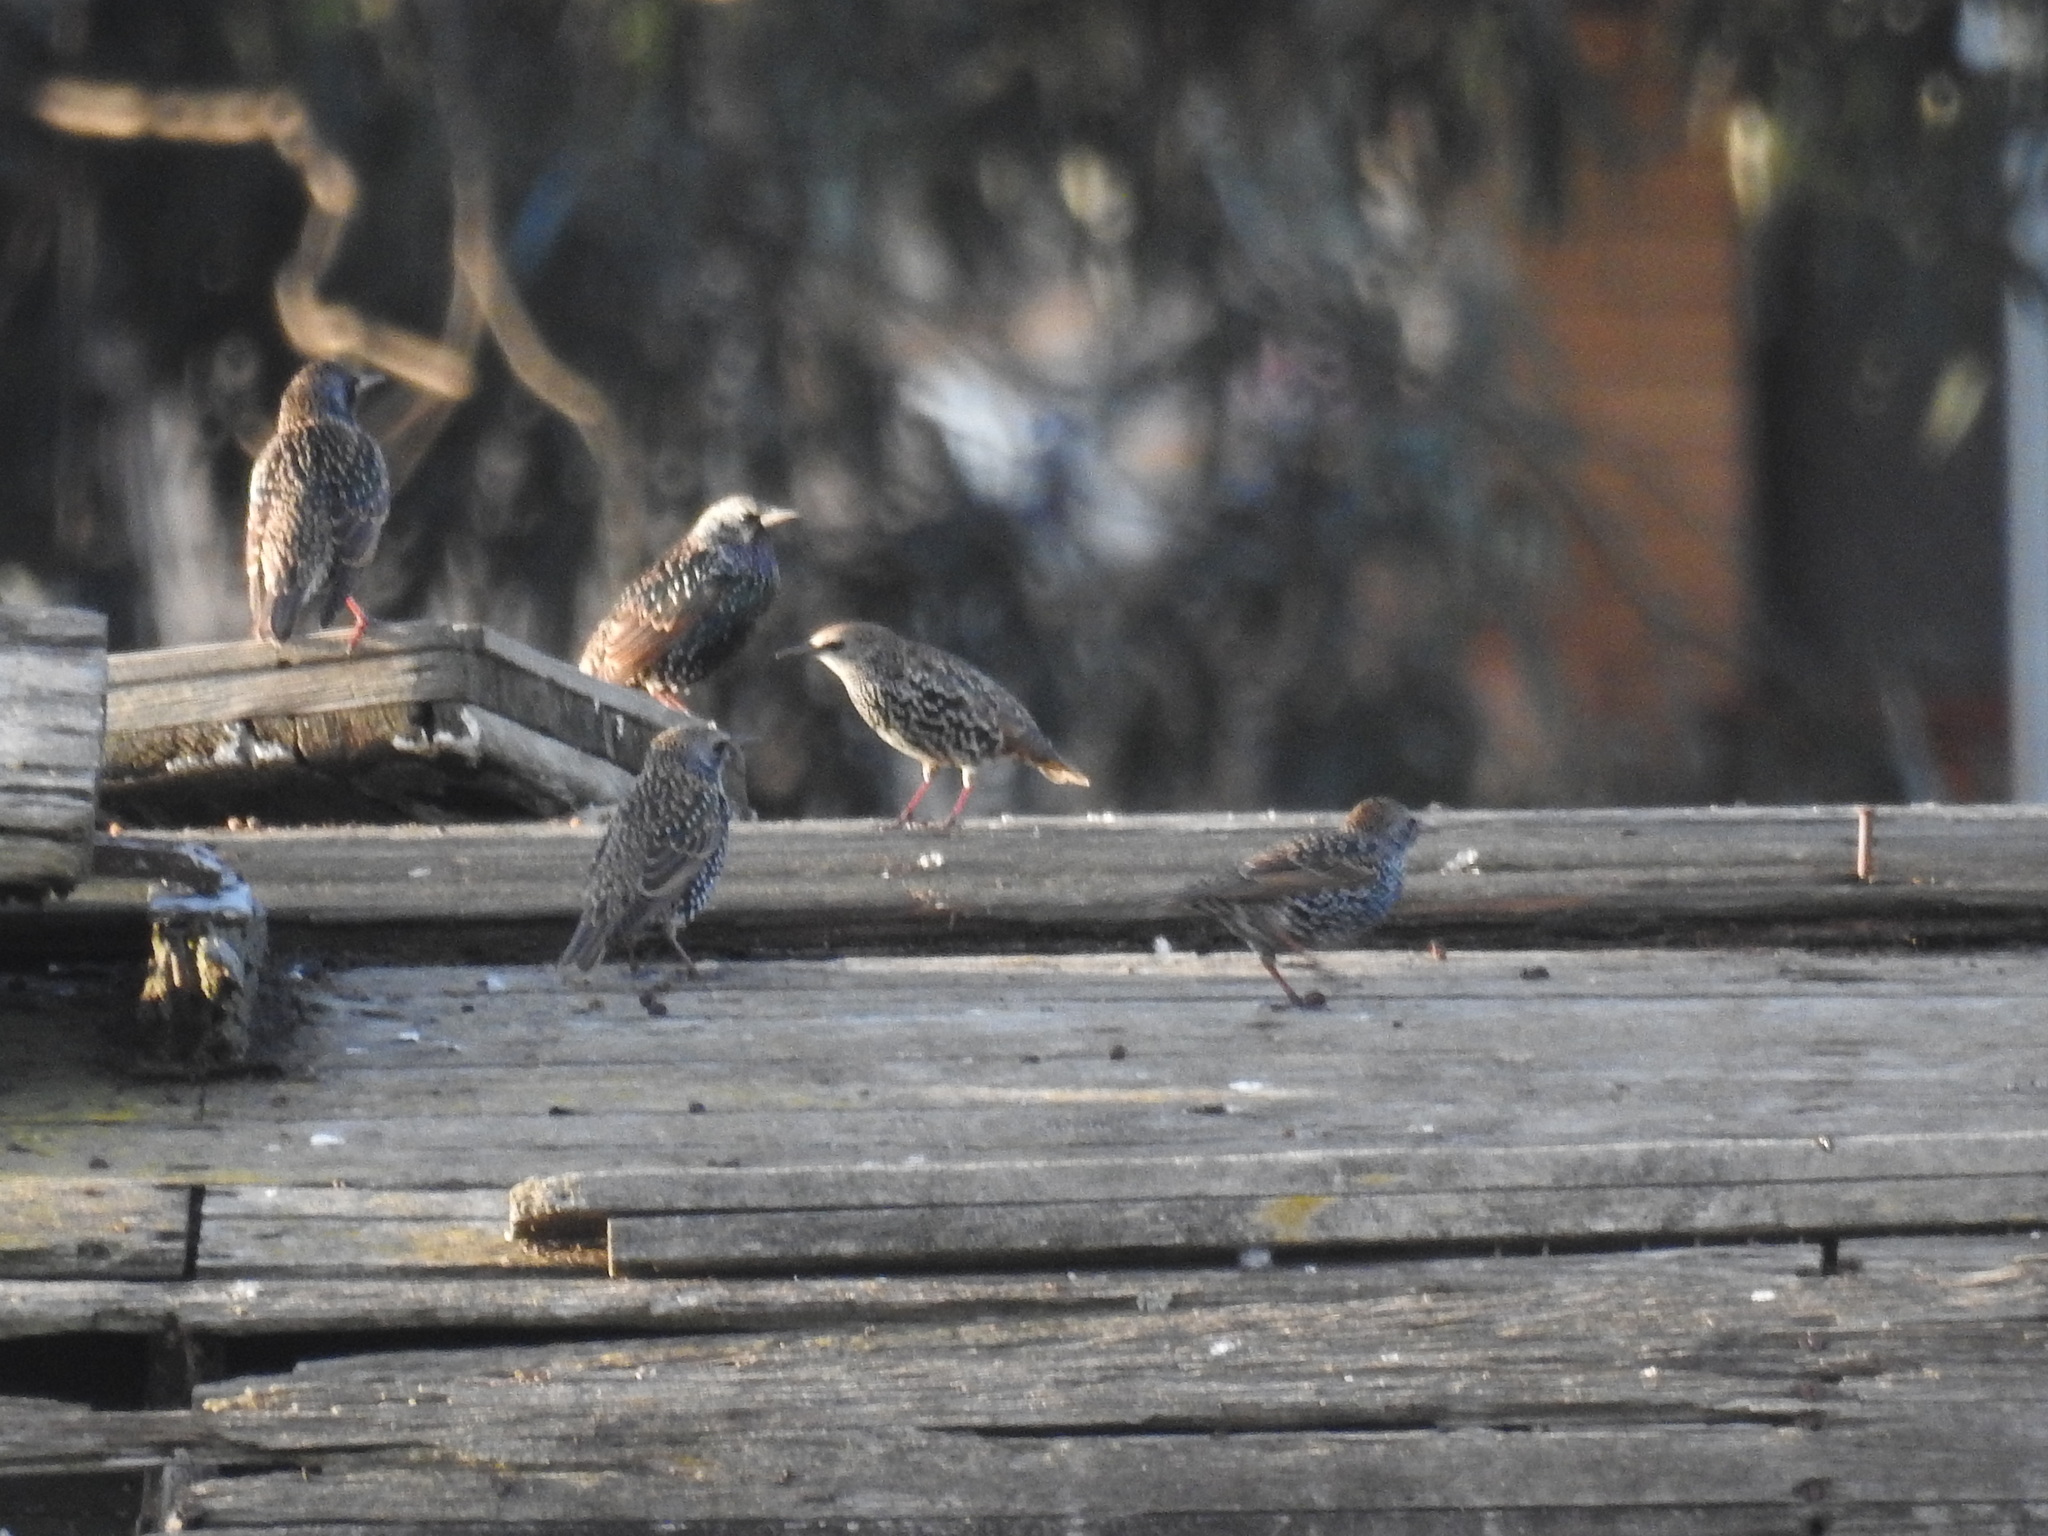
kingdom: Animalia
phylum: Chordata
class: Aves
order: Passeriformes
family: Sturnidae
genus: Sturnus
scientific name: Sturnus vulgaris
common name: Common starling
